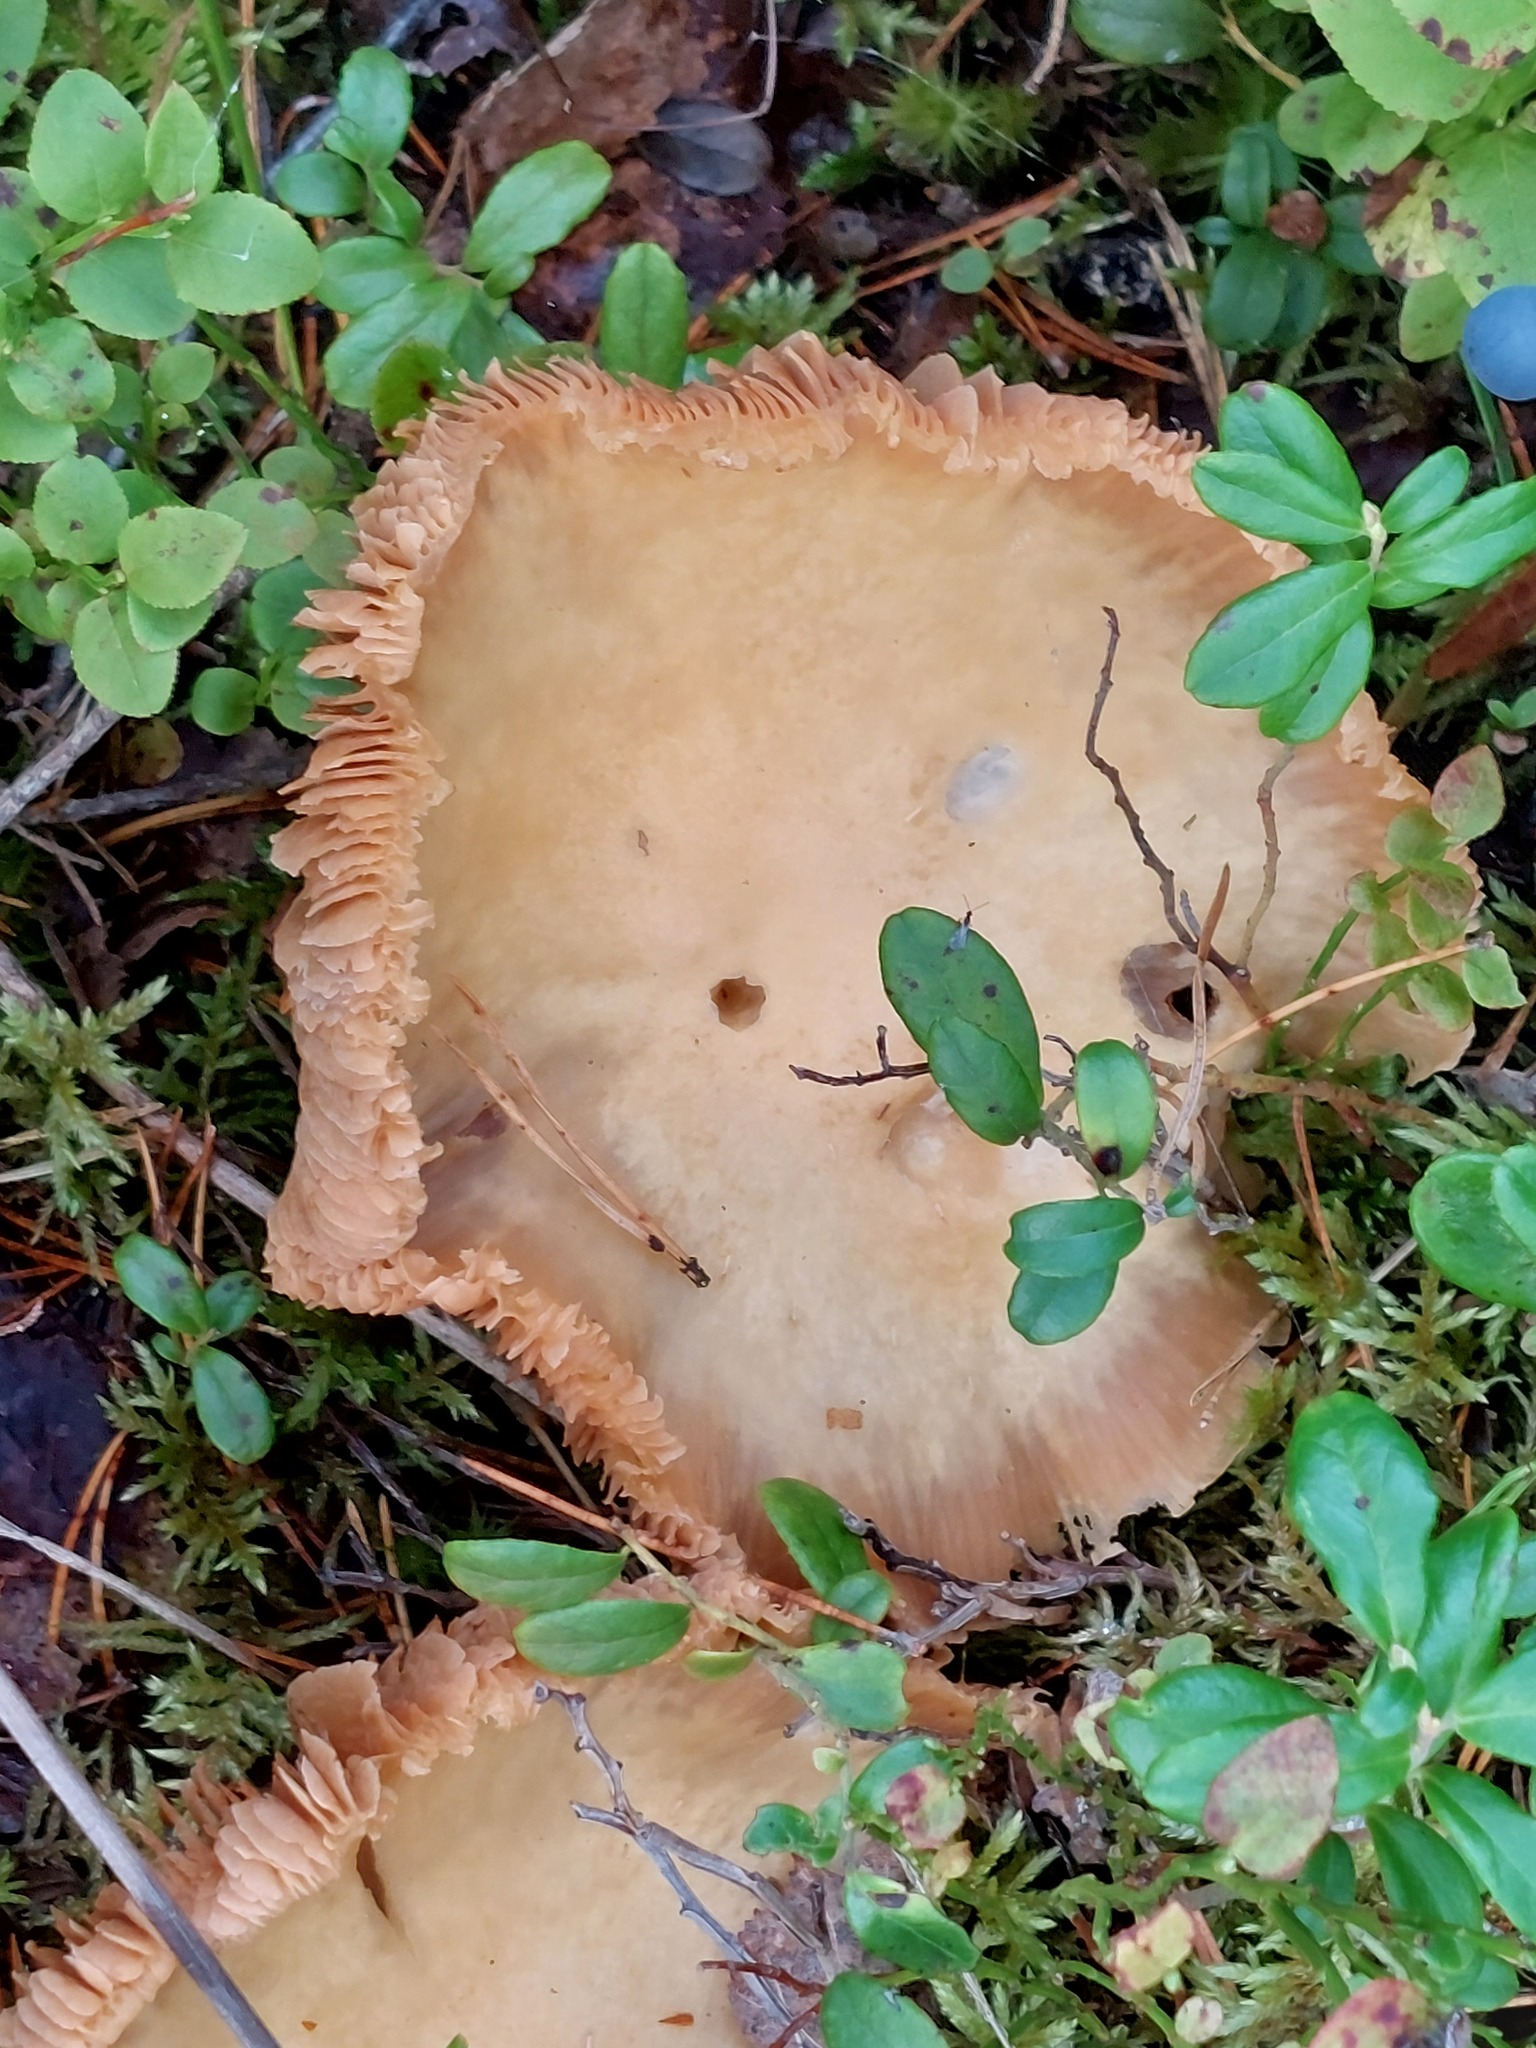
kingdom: Fungi
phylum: Basidiomycota
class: Agaricomycetes
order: Agaricales
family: Cortinariaceae
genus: Cortinarius
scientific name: Cortinarius caperatus
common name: The gypsy
